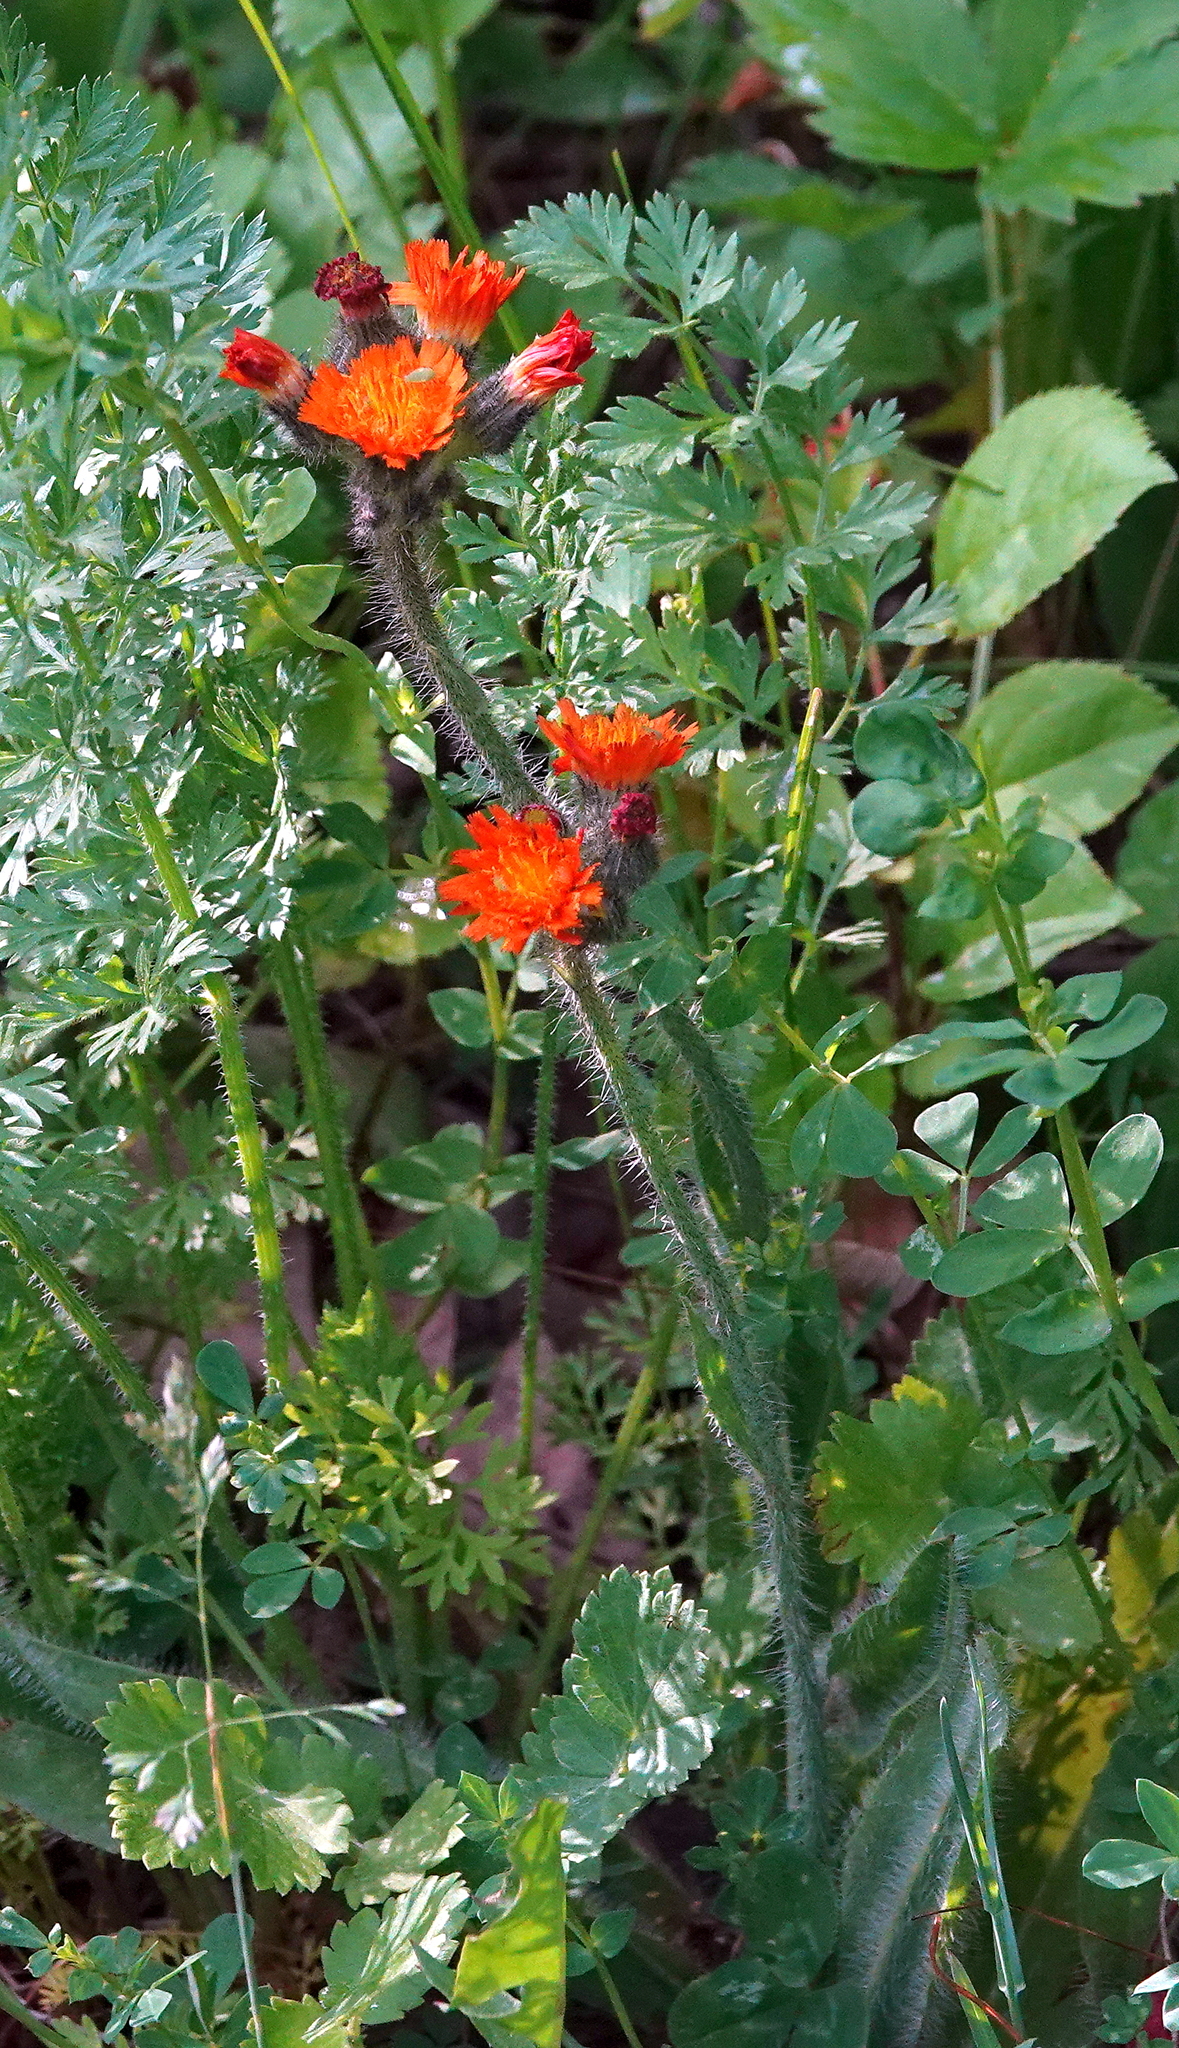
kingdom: Plantae
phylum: Tracheophyta
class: Magnoliopsida
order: Asterales
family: Asteraceae
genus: Pilosella
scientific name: Pilosella aurantiaca
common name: Fox-and-cubs
